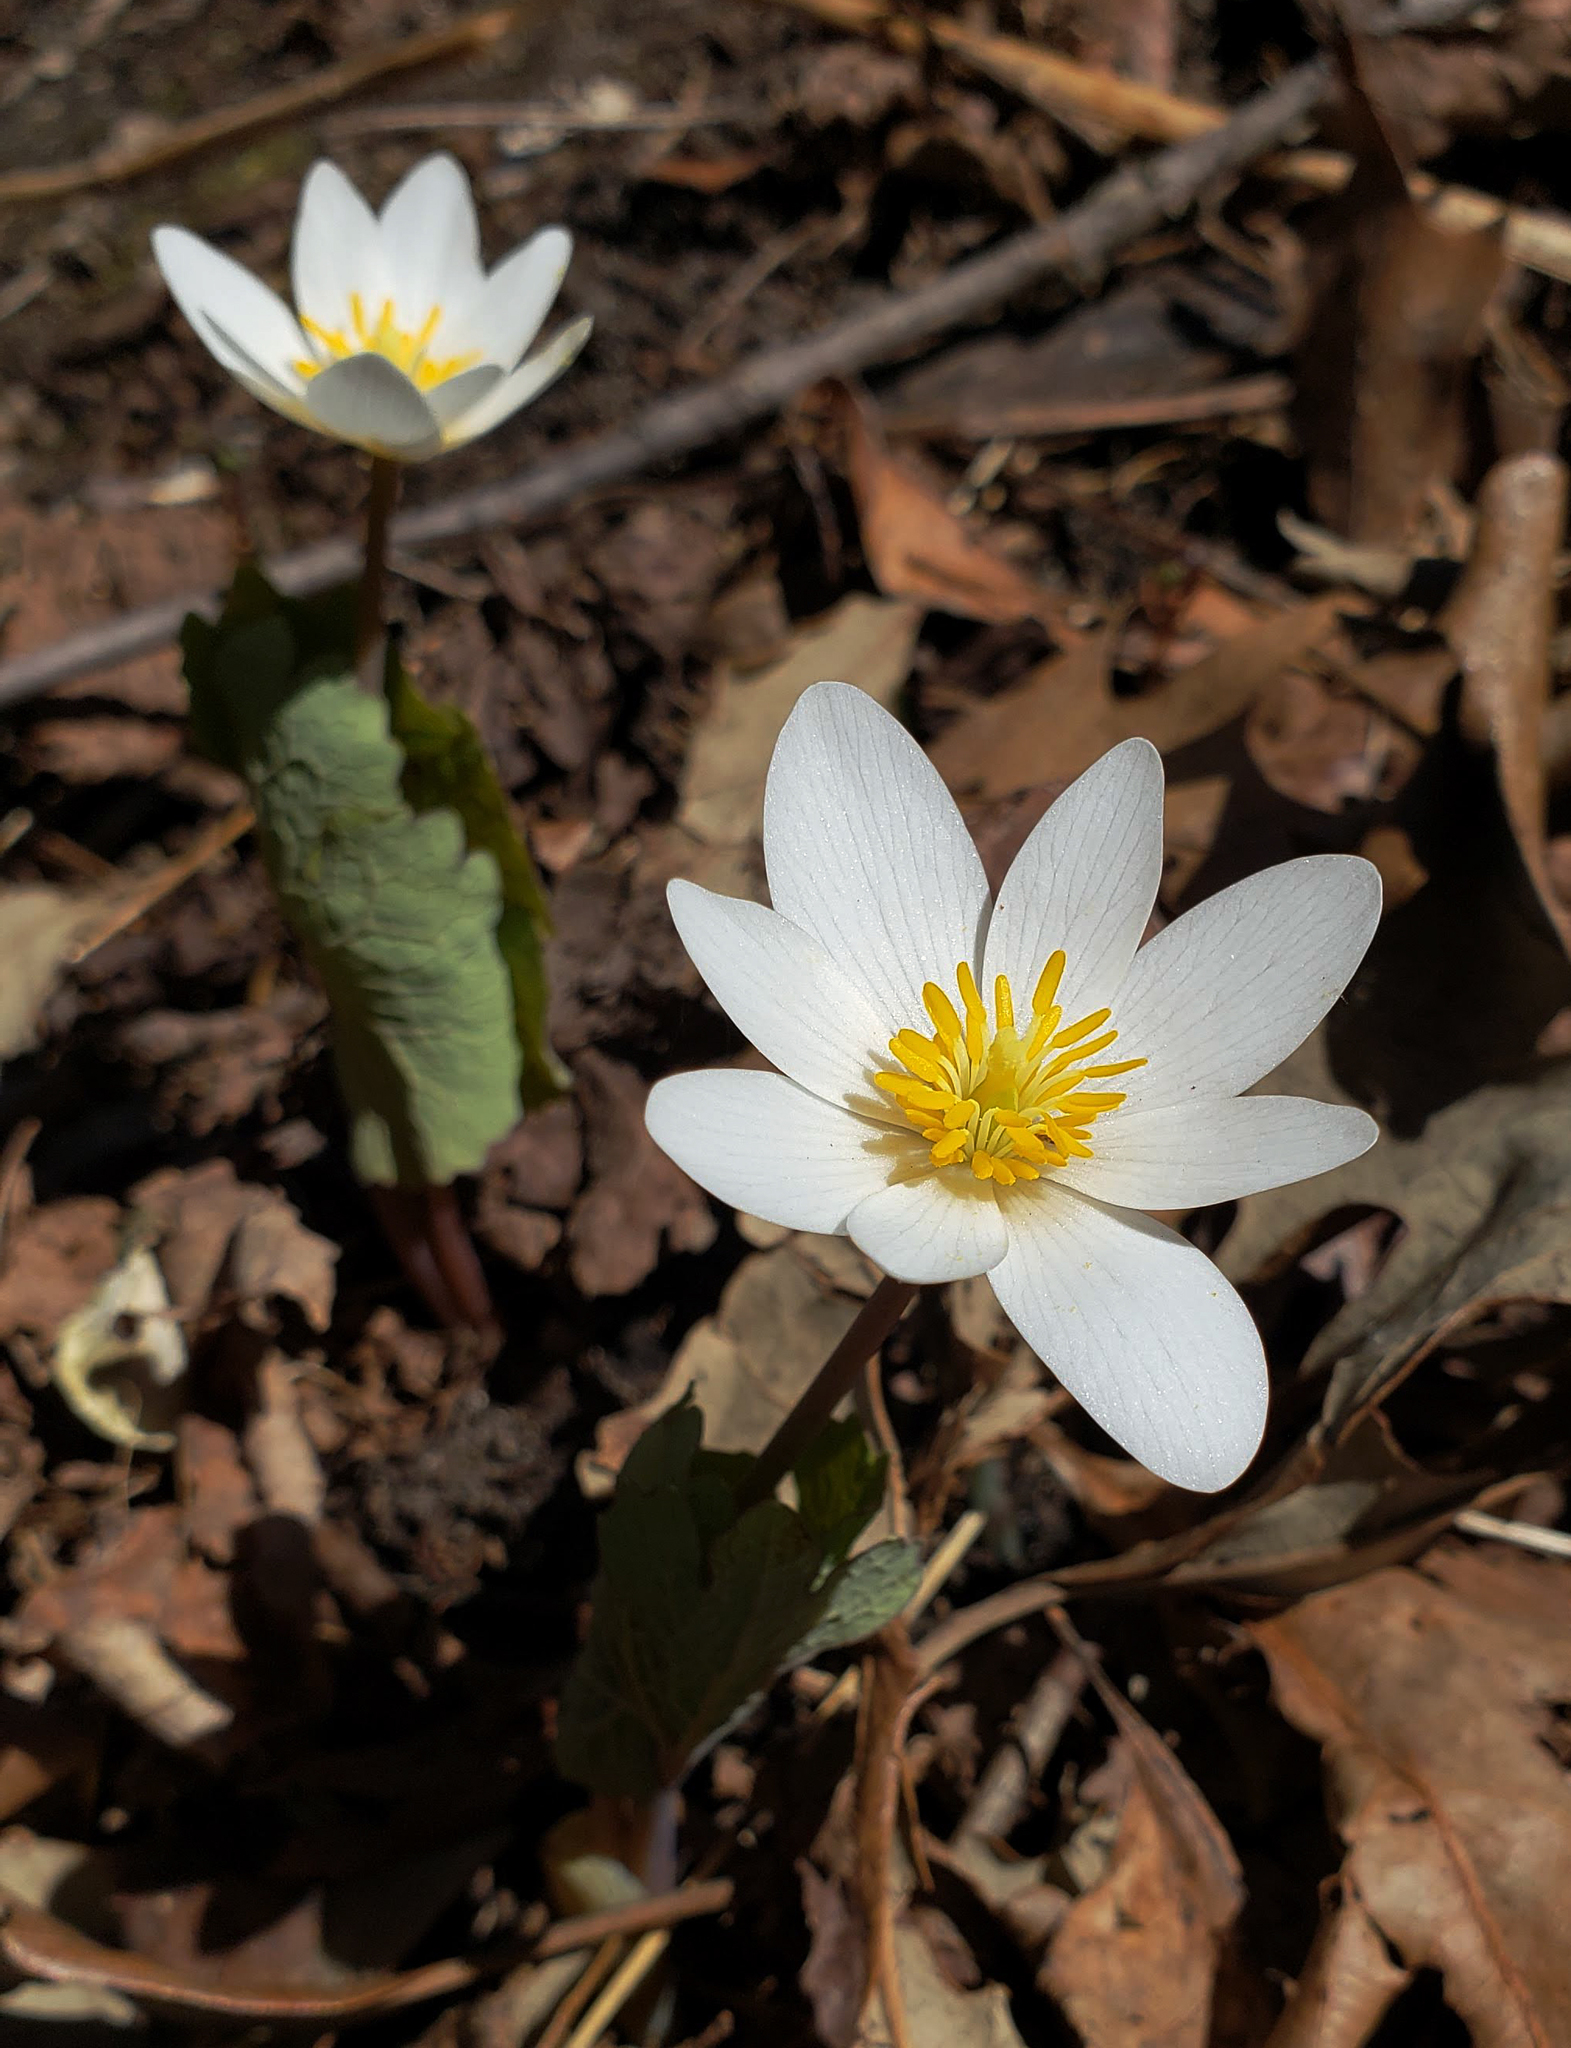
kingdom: Plantae
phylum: Tracheophyta
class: Magnoliopsida
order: Ranunculales
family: Papaveraceae
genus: Sanguinaria
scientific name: Sanguinaria canadensis
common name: Bloodroot
